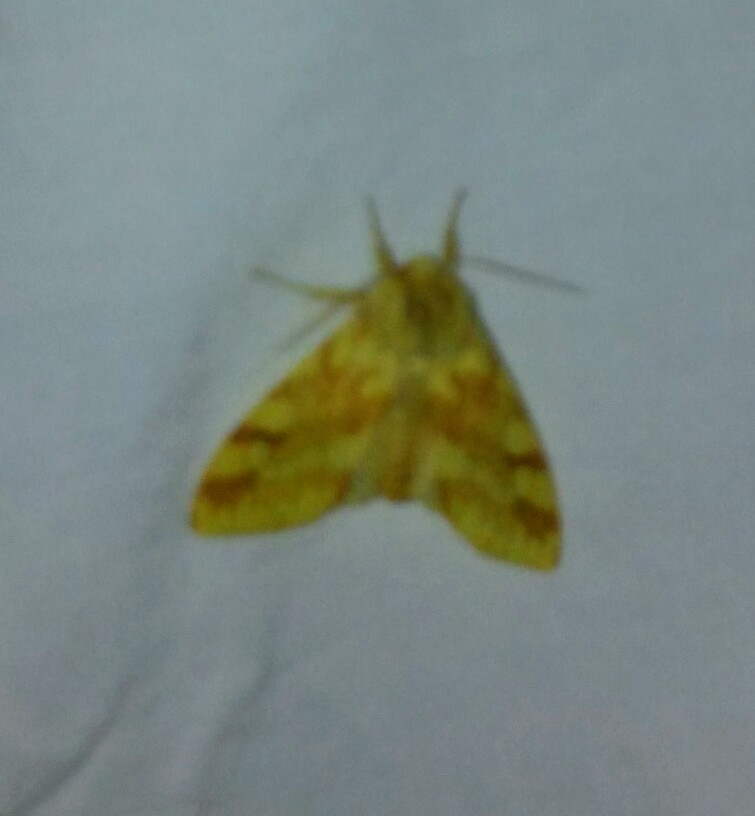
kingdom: Animalia
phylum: Arthropoda
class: Insecta
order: Lepidoptera
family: Erebidae
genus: Lophocampa
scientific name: Lophocampa maculata
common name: Spotted tussock moth
